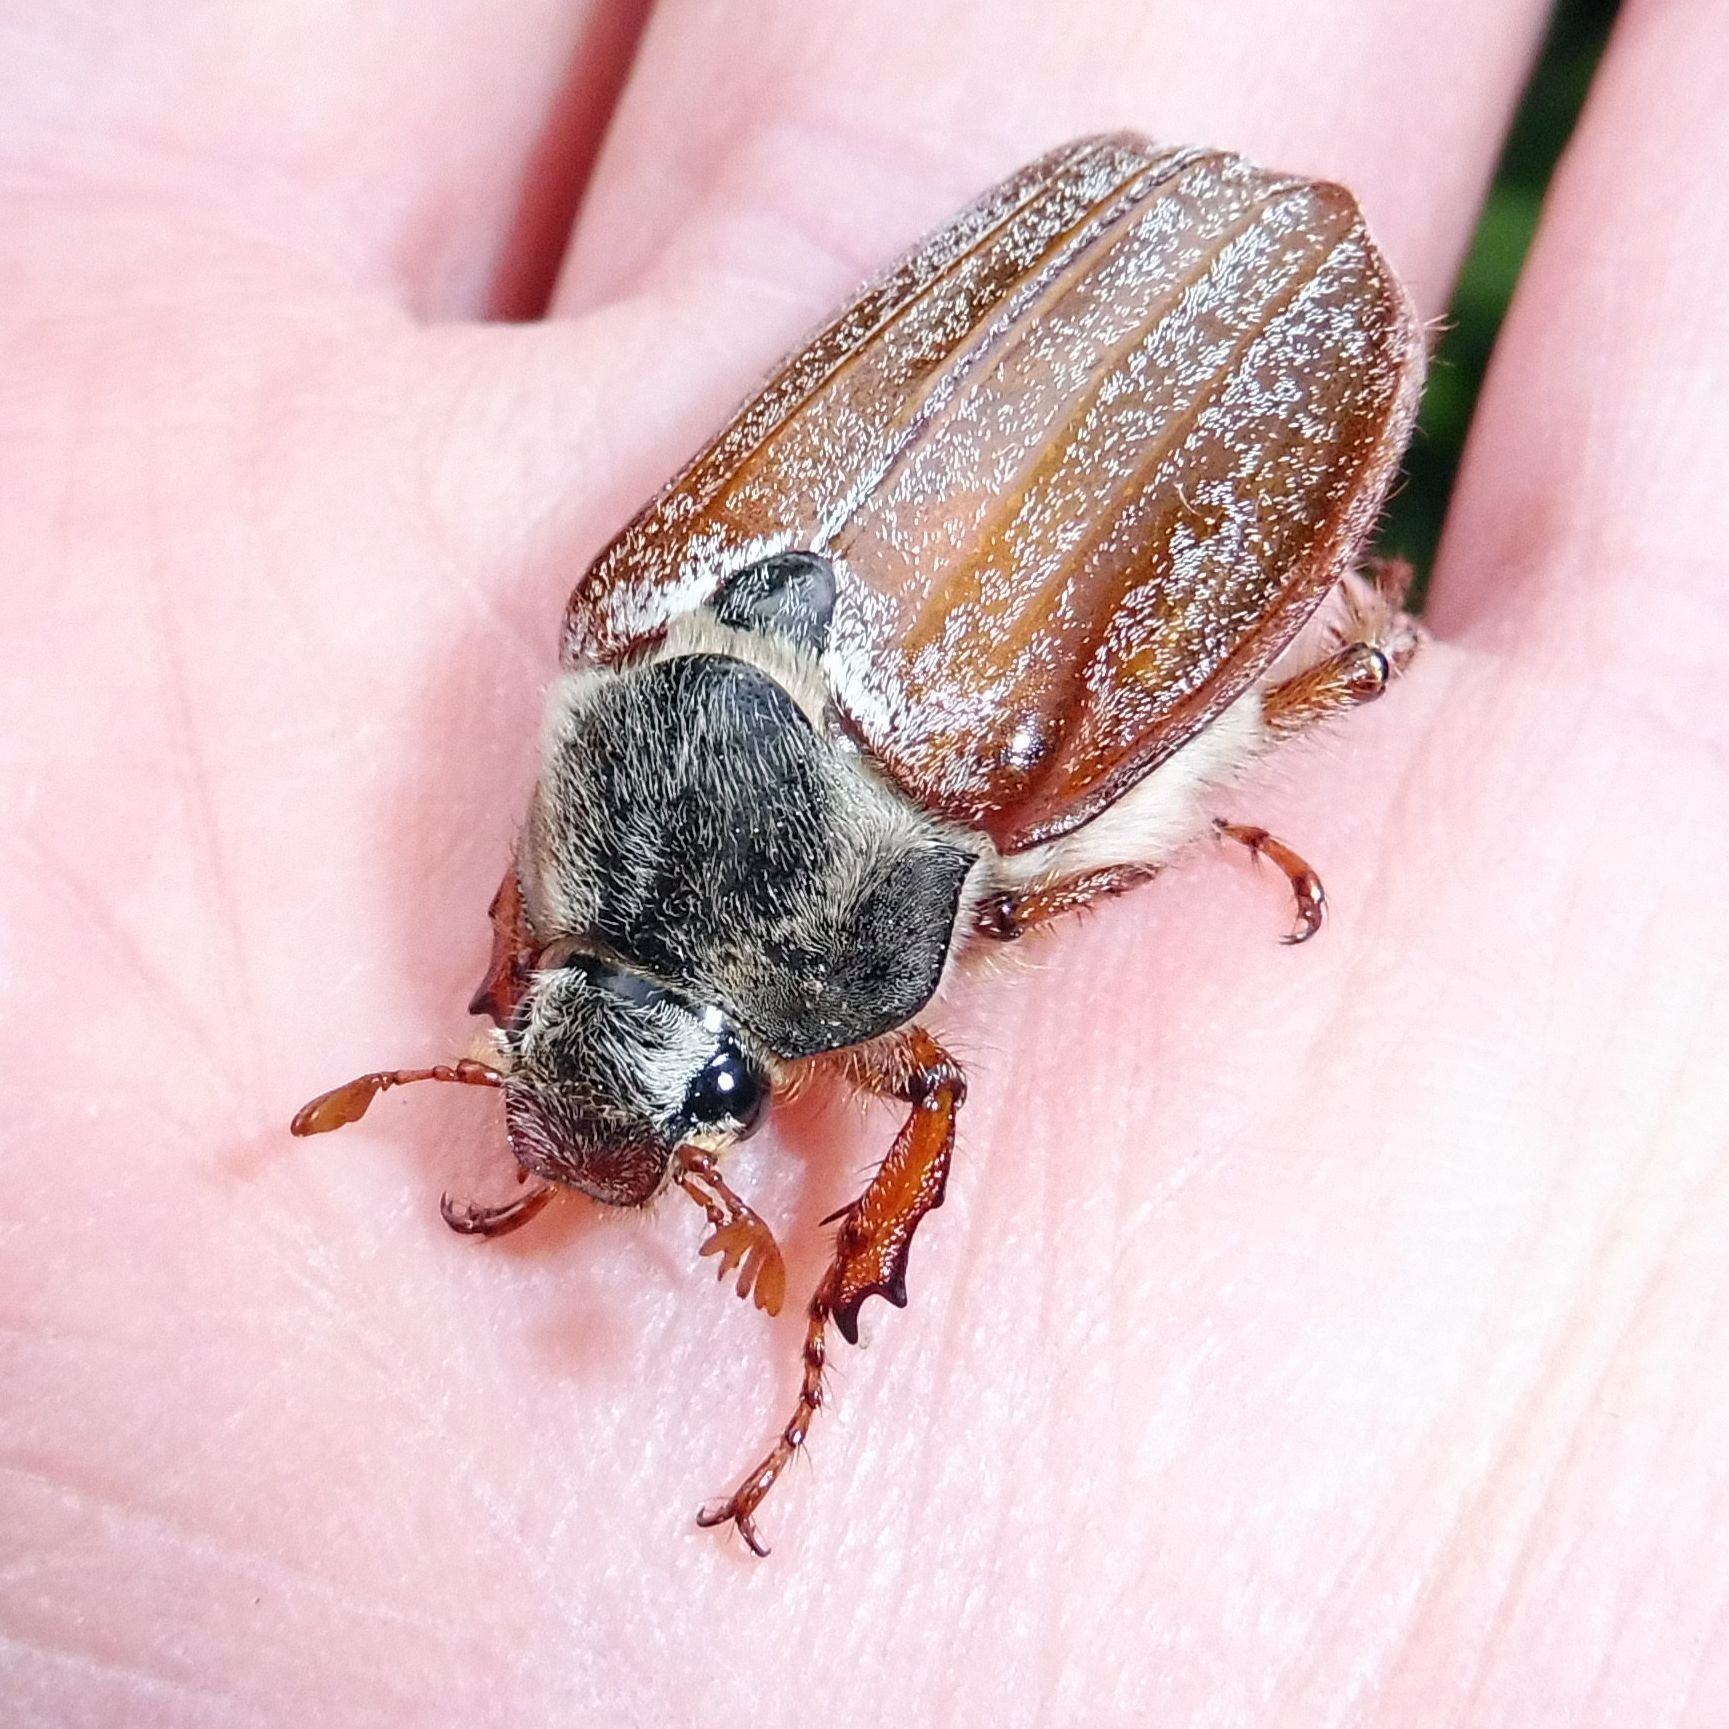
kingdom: Animalia
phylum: Arthropoda
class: Insecta
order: Coleoptera
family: Scarabaeidae
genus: Melolontha
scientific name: Melolontha melolontha
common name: Cockchafer maybeetle
